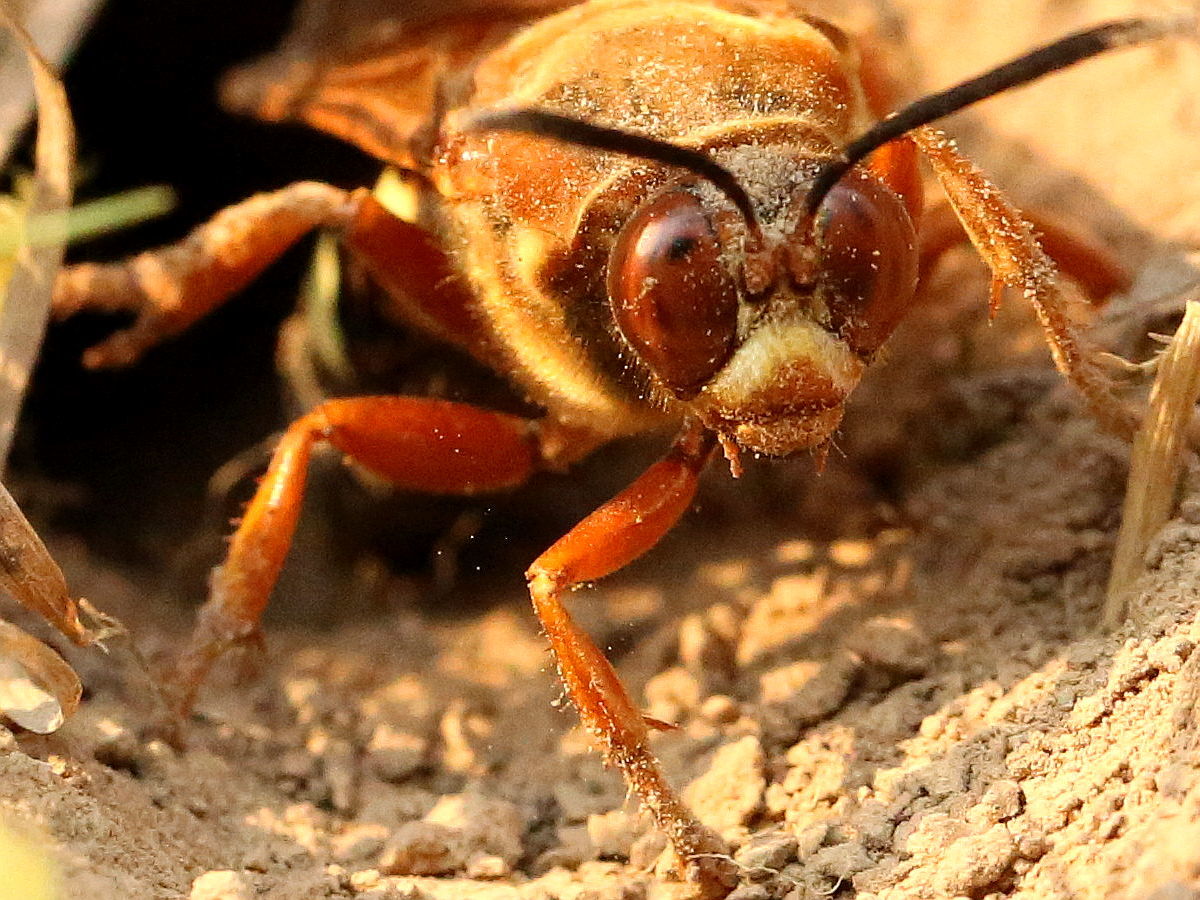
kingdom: Animalia
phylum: Arthropoda
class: Insecta
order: Hymenoptera
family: Crabronidae
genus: Sphecius
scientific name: Sphecius speciosus
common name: Cicada killer
